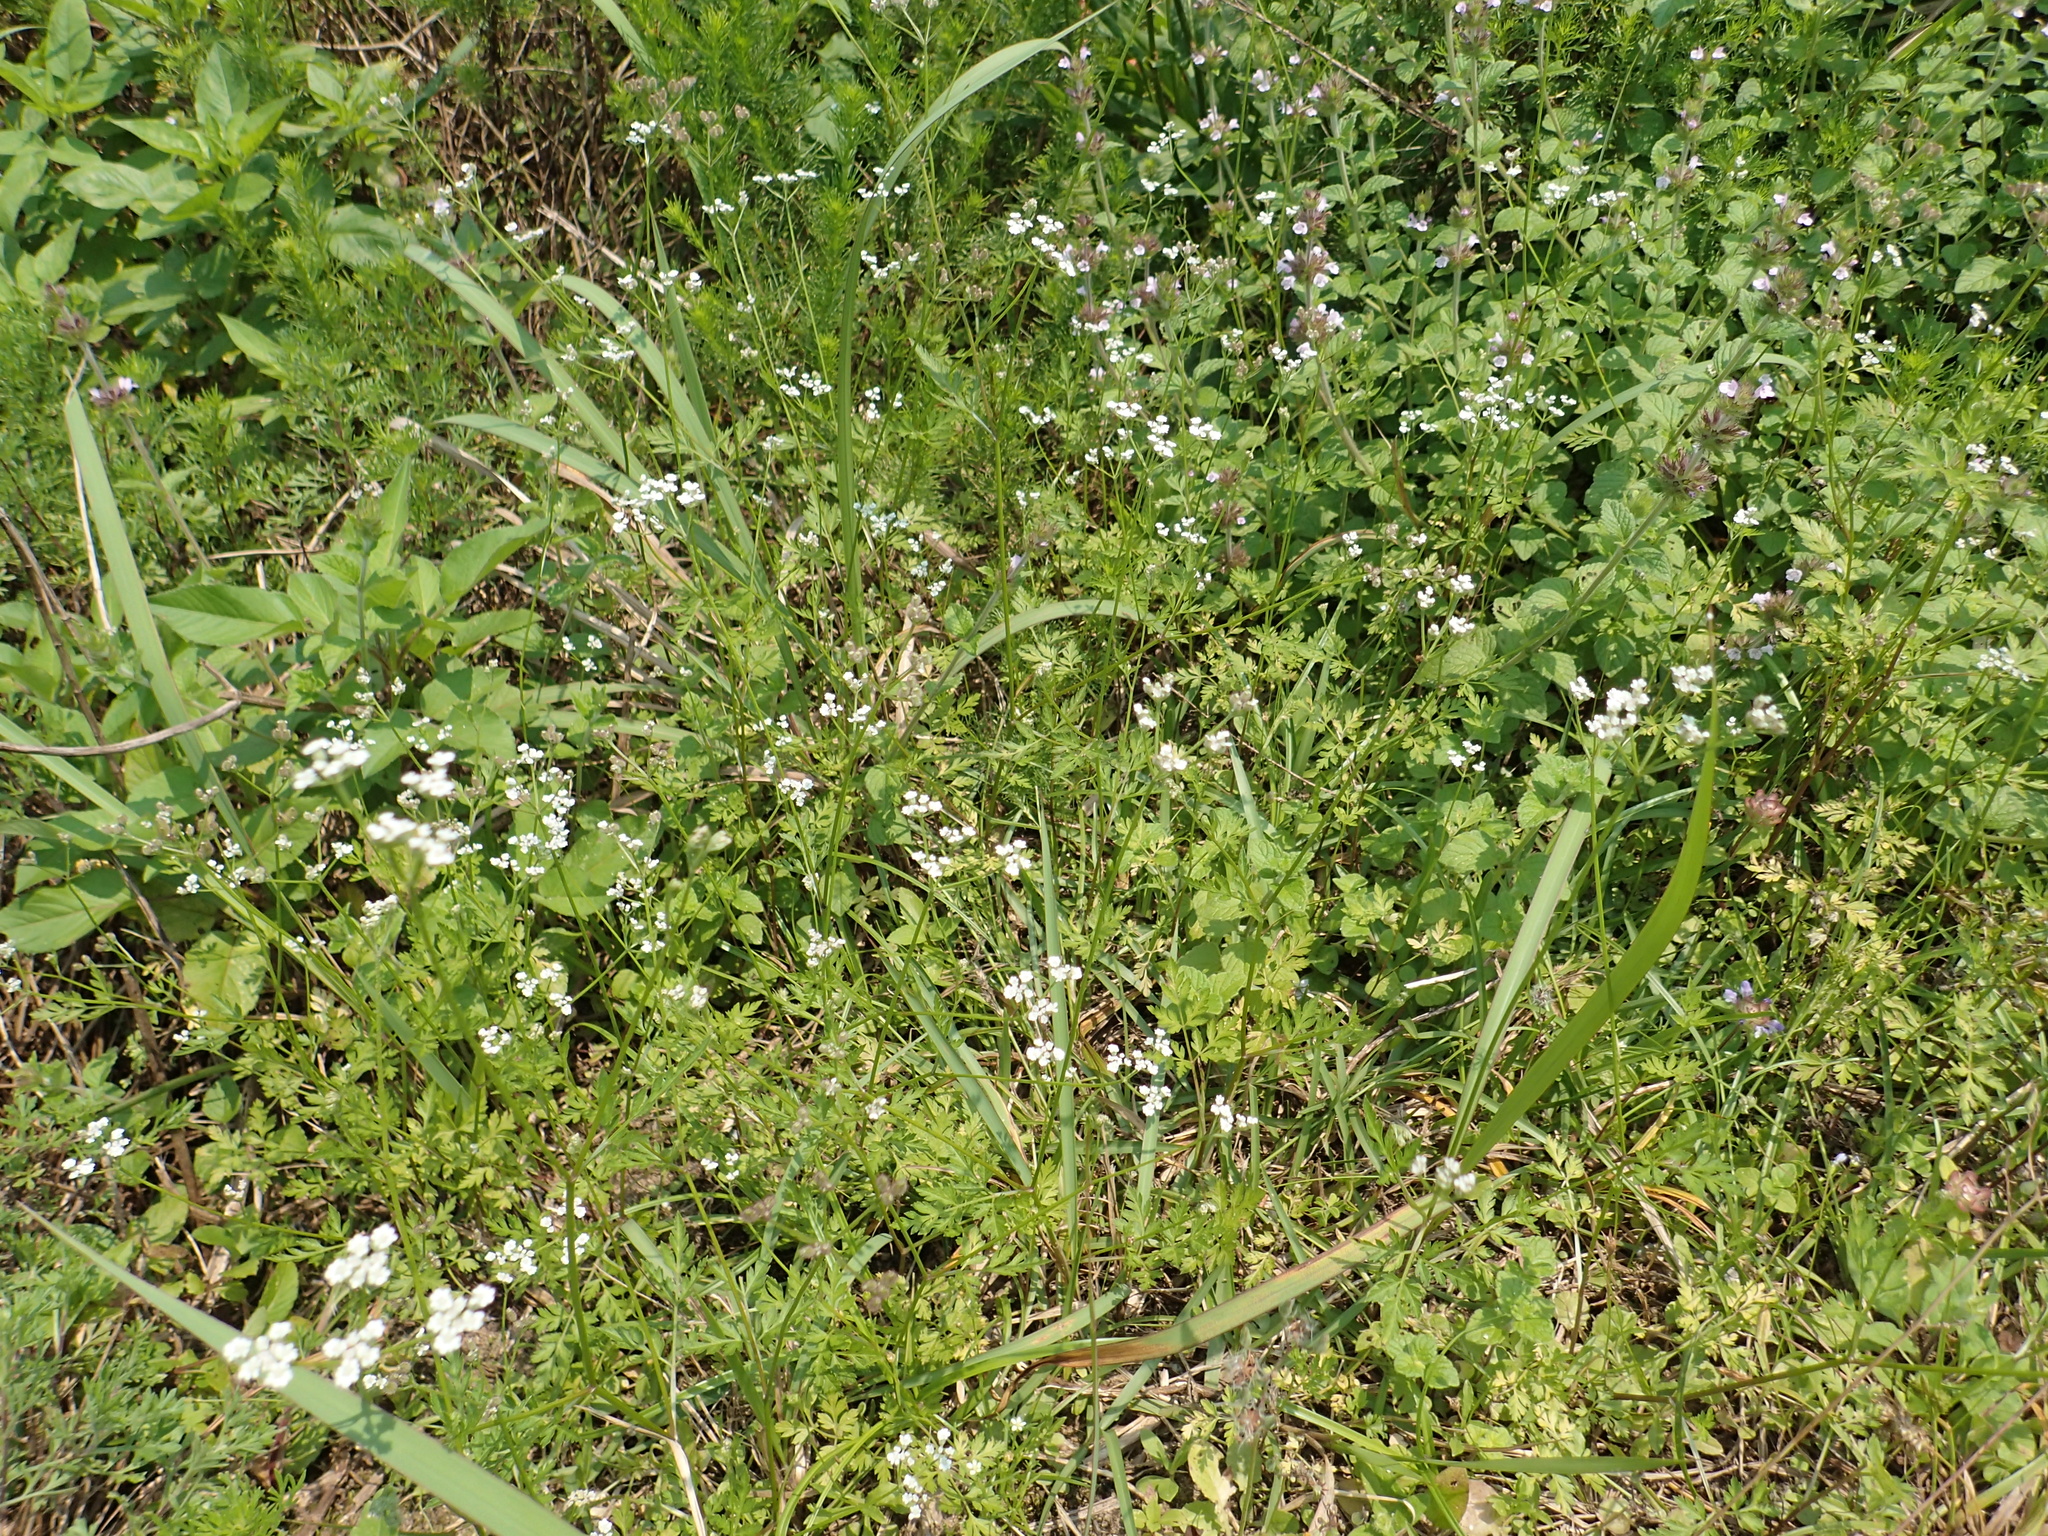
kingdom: Plantae
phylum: Tracheophyta
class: Magnoliopsida
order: Apiales
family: Apiaceae
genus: Torilis
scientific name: Torilis japonica
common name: Upright hedge-parsley
